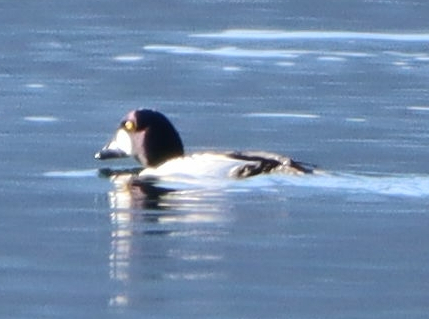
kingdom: Animalia
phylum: Chordata
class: Aves
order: Anseriformes
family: Anatidae
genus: Bucephala
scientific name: Bucephala clangula
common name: Common goldeneye
